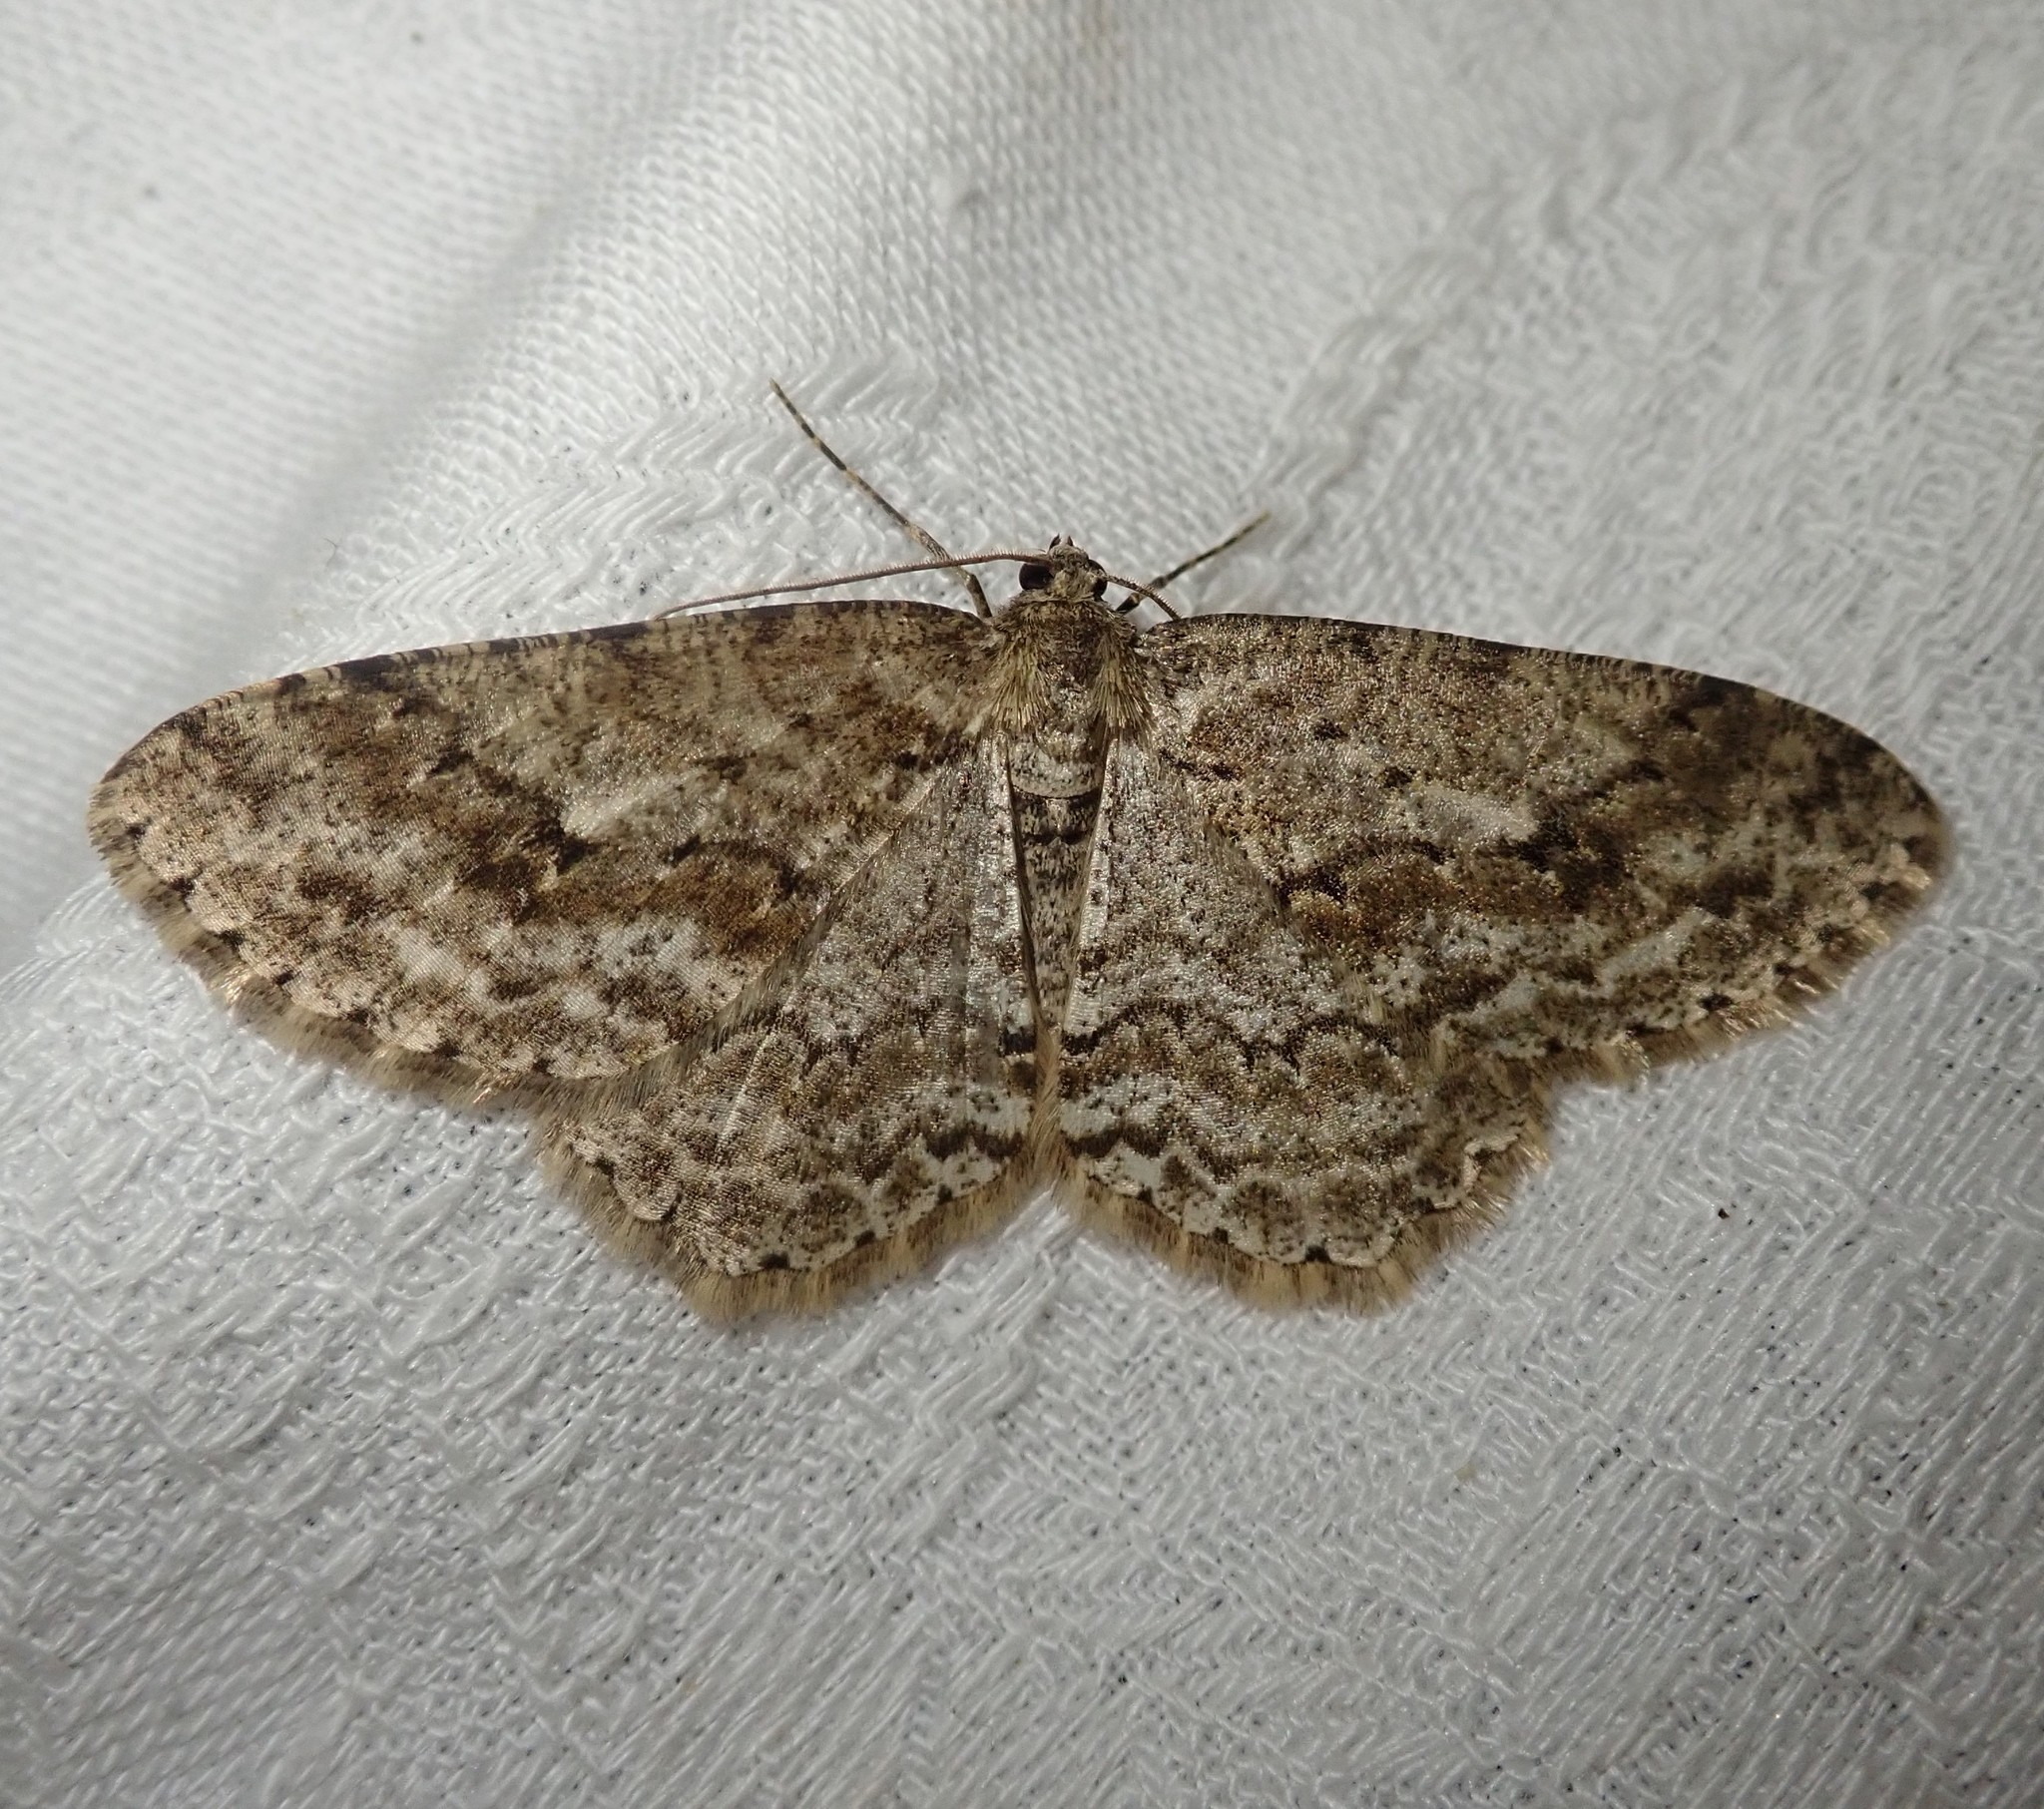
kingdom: Animalia
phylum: Arthropoda
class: Insecta
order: Lepidoptera
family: Geometridae
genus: Ectropis
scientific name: Ectropis crepuscularia
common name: Engrailed
